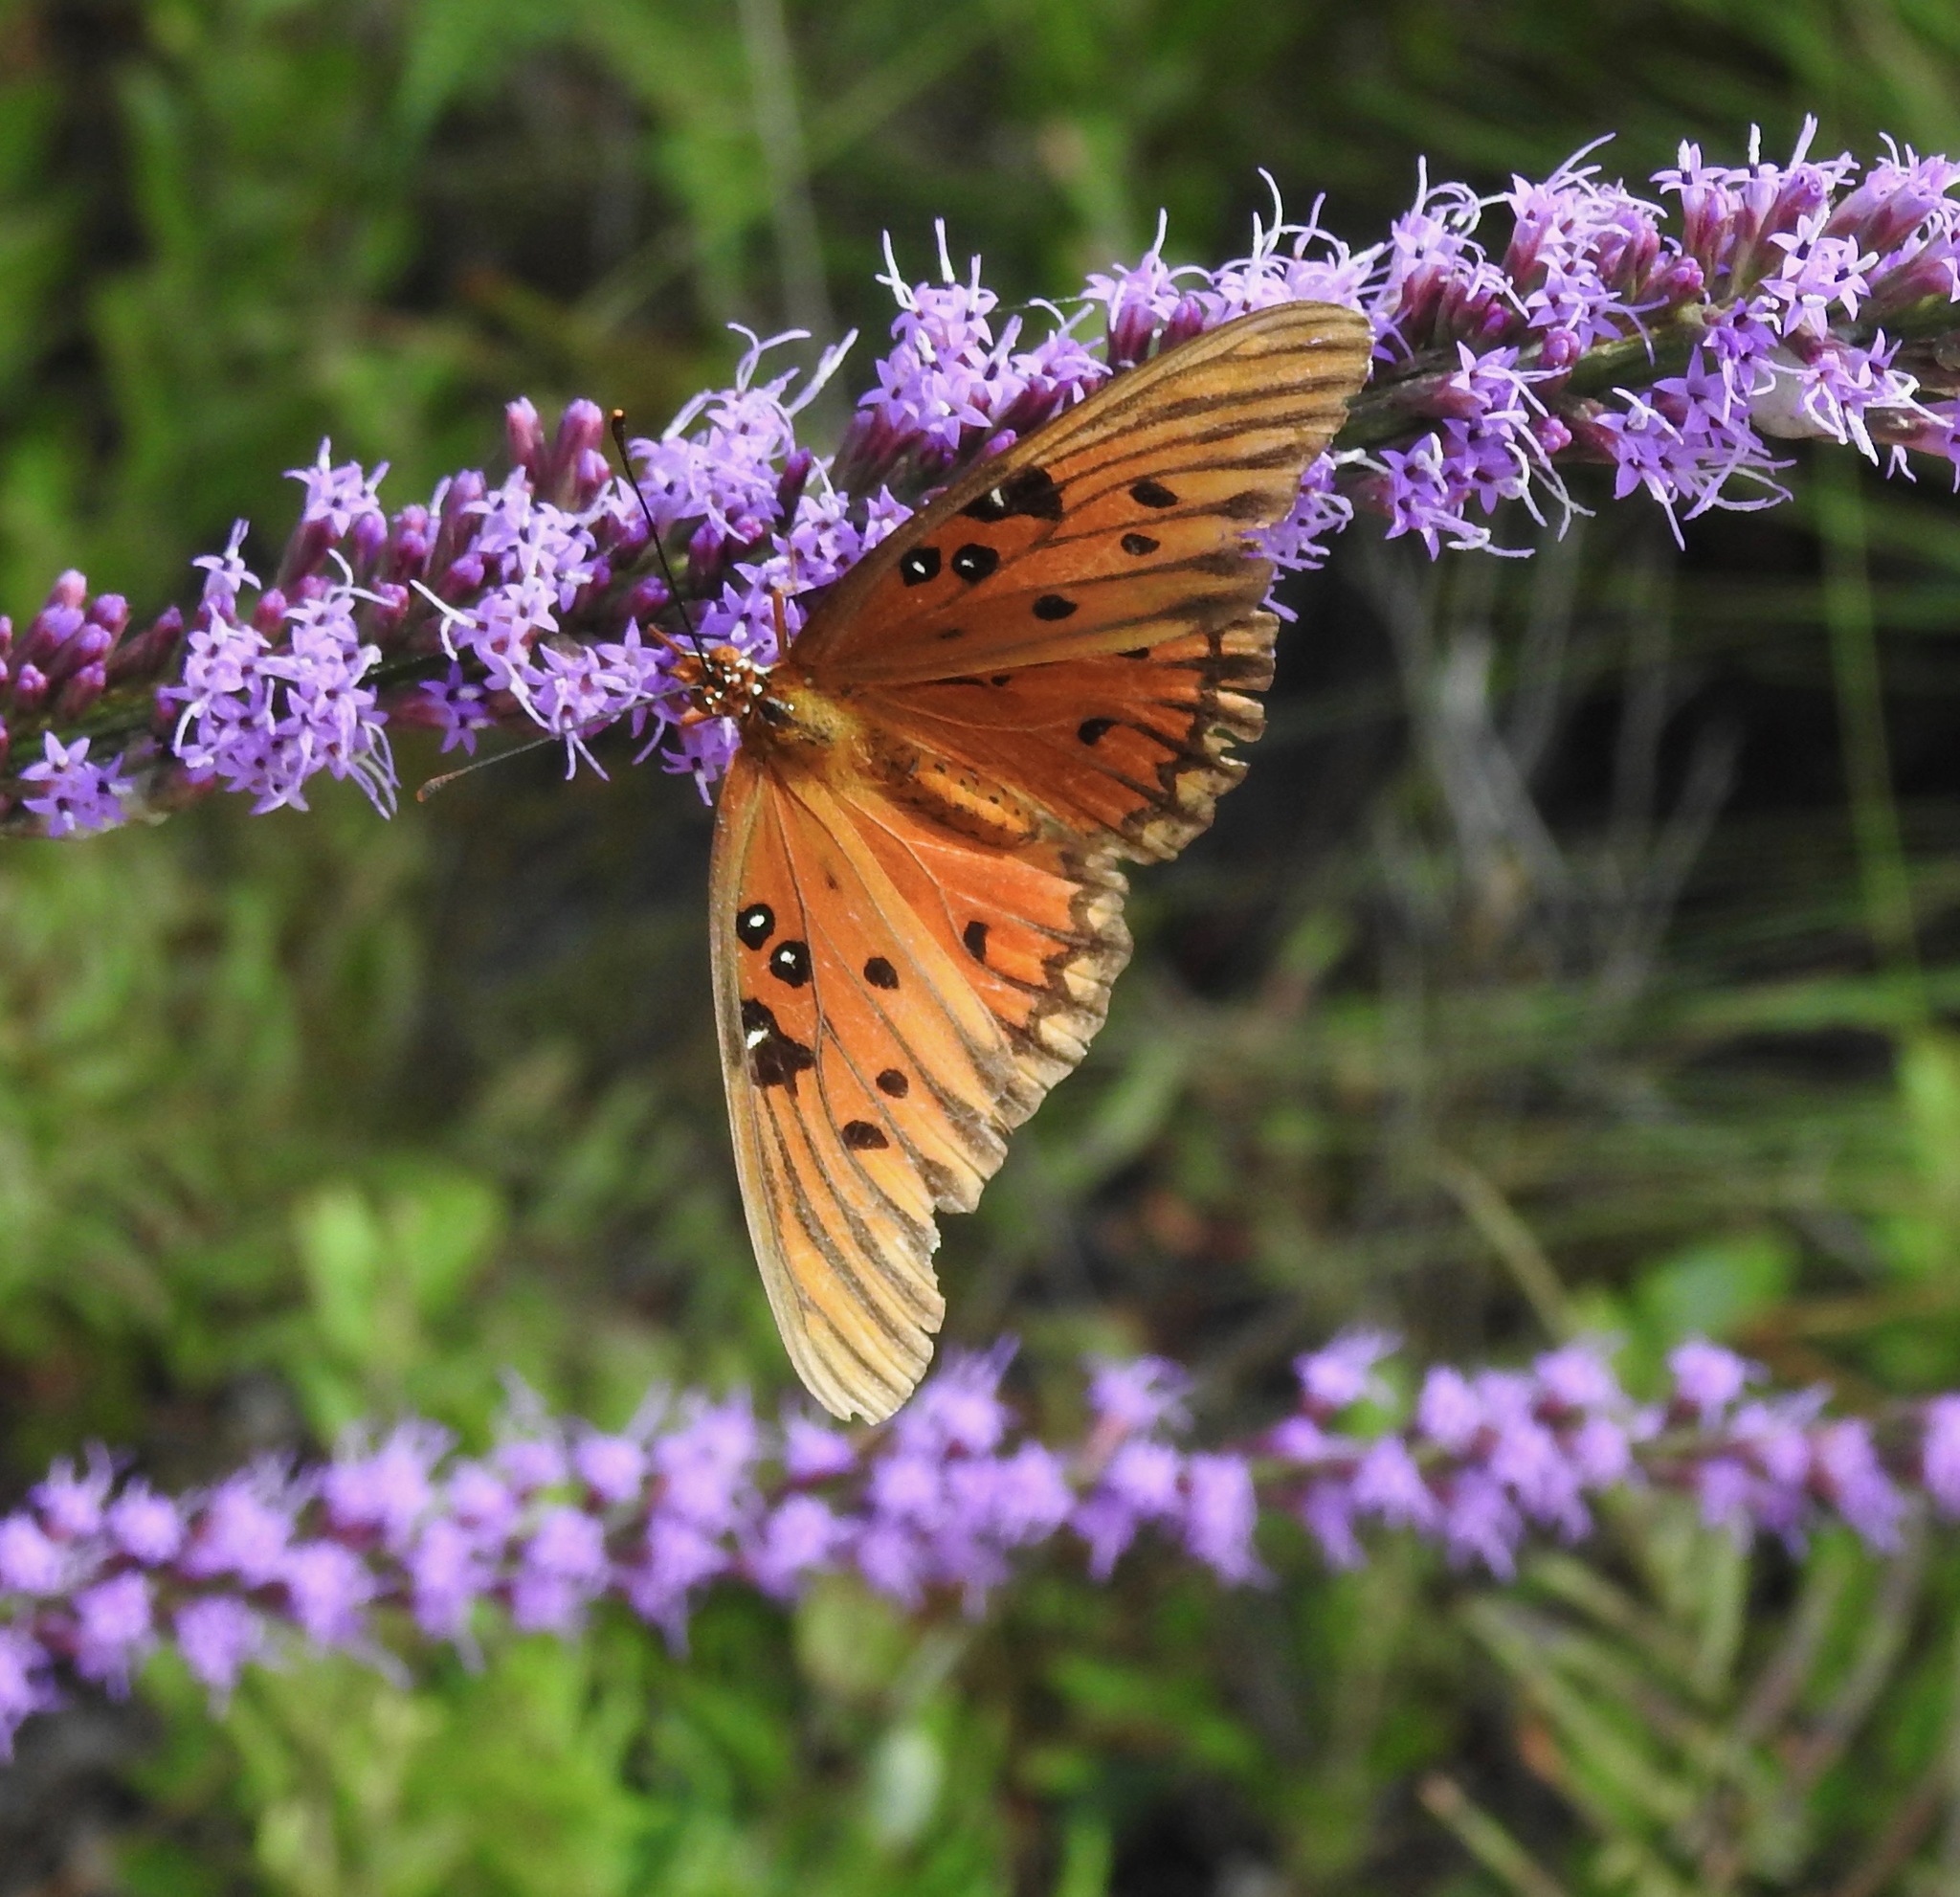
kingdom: Animalia
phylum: Arthropoda
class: Insecta
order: Lepidoptera
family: Nymphalidae
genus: Dione
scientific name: Dione vanillae
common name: Gulf fritillary
